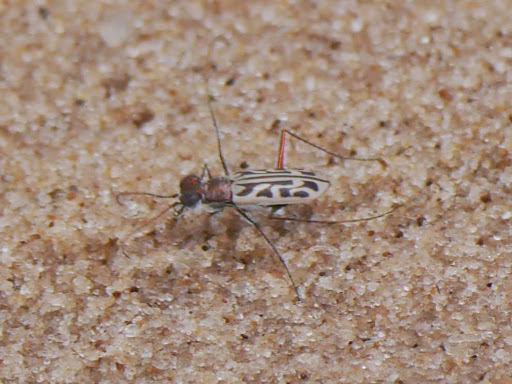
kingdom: Animalia
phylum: Arthropoda
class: Insecta
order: Coleoptera
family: Carabidae
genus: Habrodera
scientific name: Habrodera nitidula
